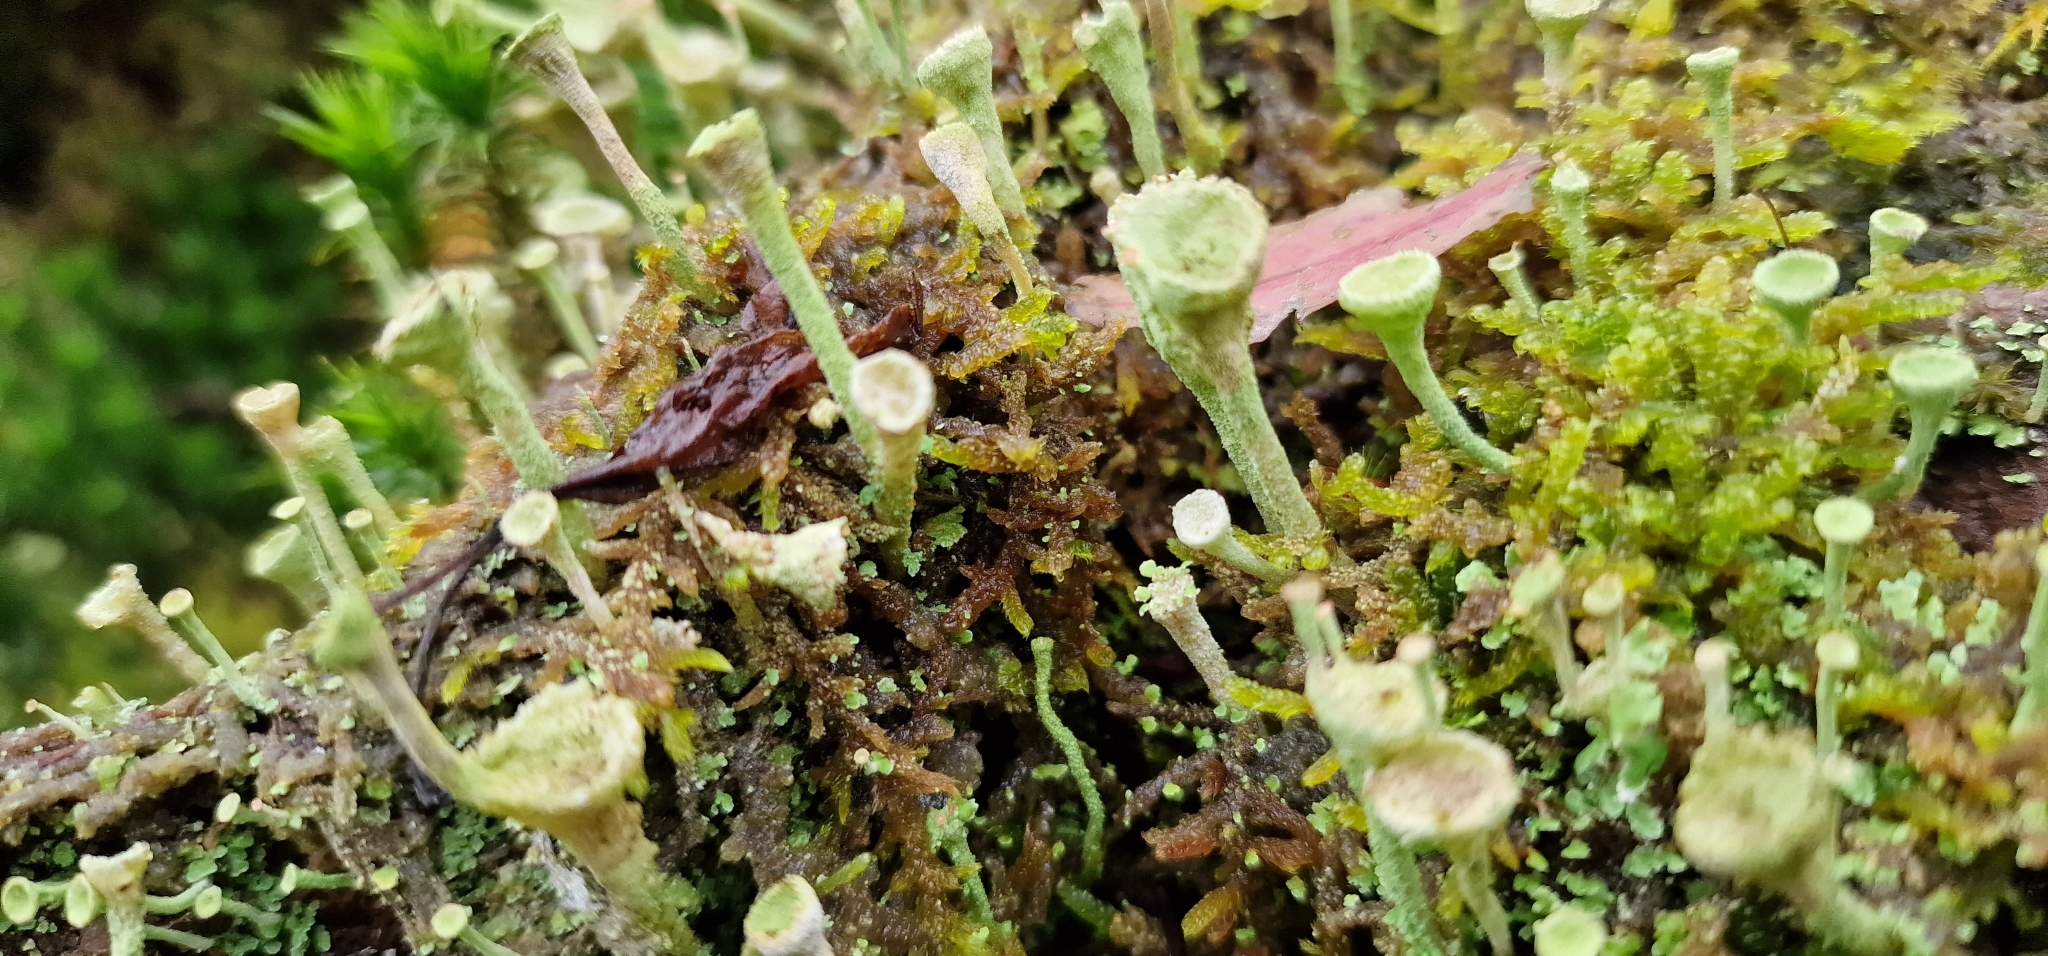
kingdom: Fungi
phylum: Ascomycota
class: Lecanoromycetes
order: Lecanorales
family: Cladoniaceae
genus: Cladonia
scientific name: Cladonia fimbriata
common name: Powdered trumpet lichen
